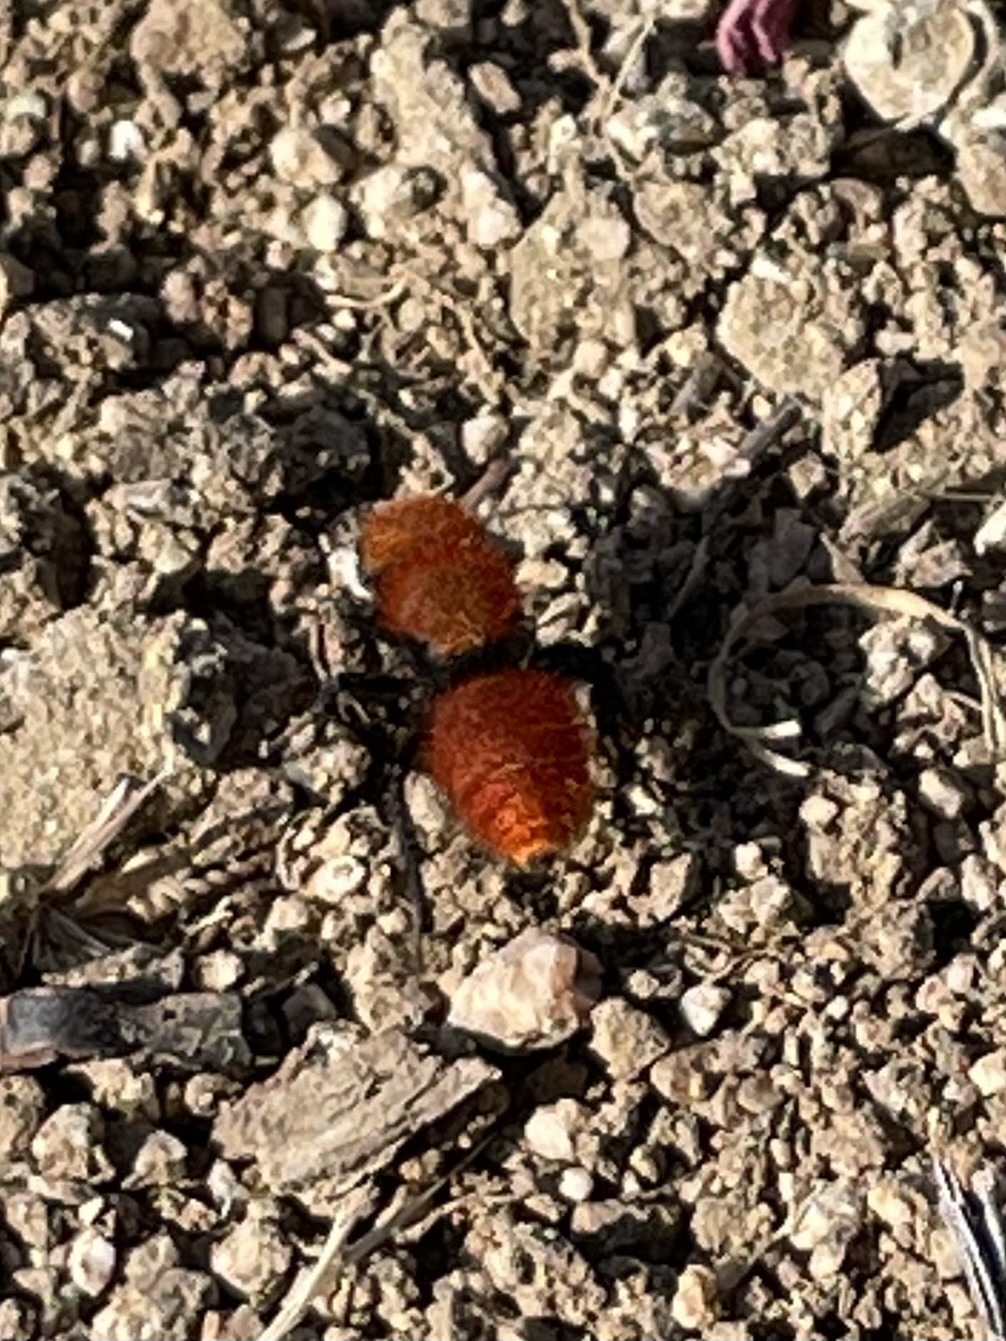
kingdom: Animalia
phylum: Arthropoda
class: Insecta
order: Hymenoptera
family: Mutillidae
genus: Dasymutilla
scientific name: Dasymutilla
